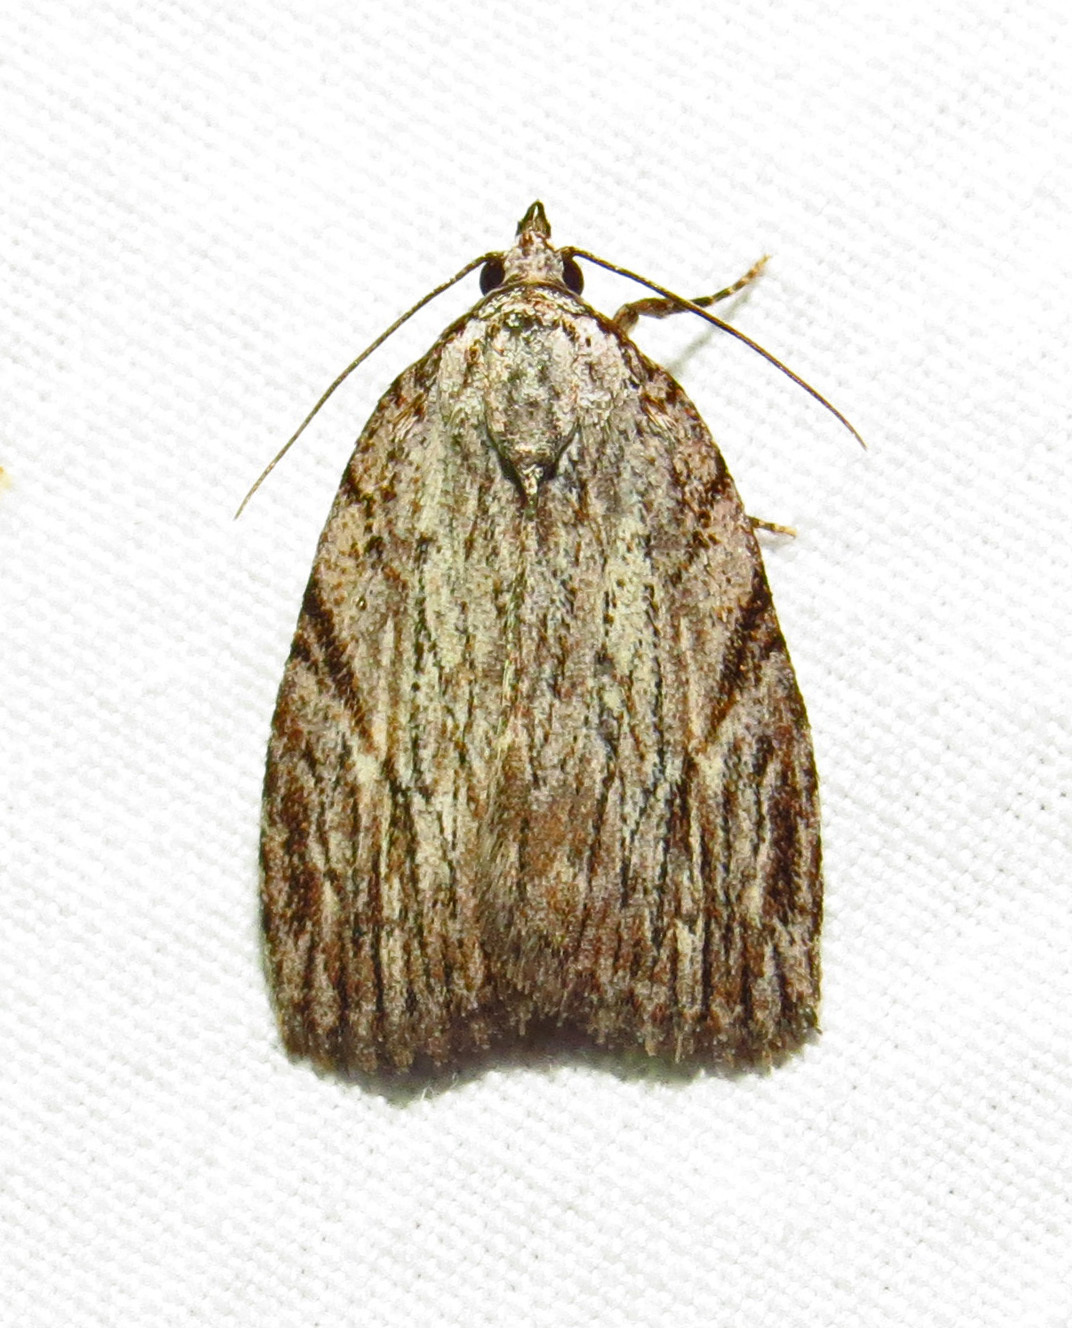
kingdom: Animalia
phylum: Arthropoda
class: Insecta
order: Lepidoptera
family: Noctuidae
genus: Balsa
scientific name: Balsa tristrigella
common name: Three-lined balsa moth
